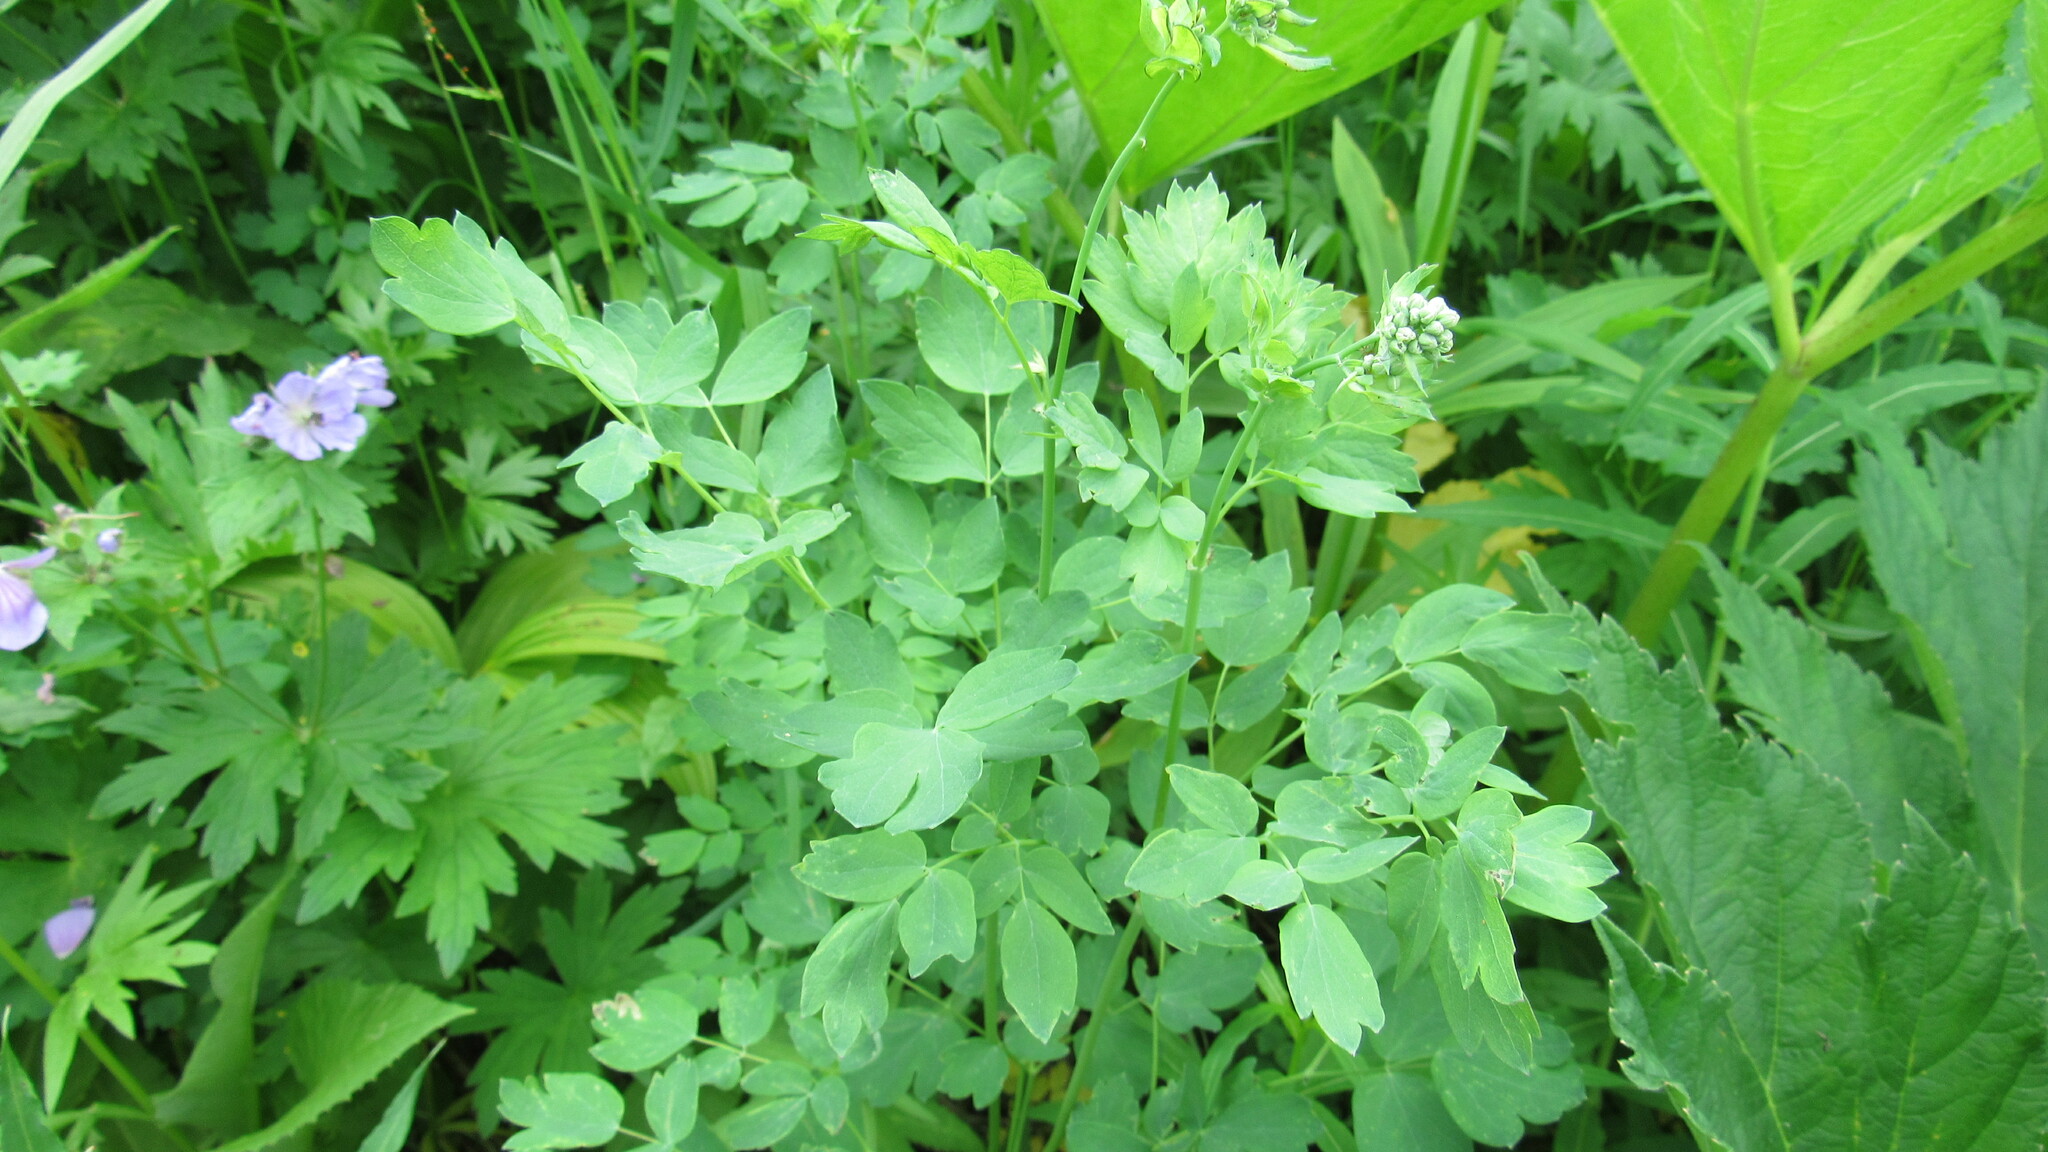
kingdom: Plantae
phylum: Tracheophyta
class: Magnoliopsida
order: Ranunculales
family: Ranunculaceae
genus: Thalictrum
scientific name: Thalictrum minus
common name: Lesser meadow-rue
